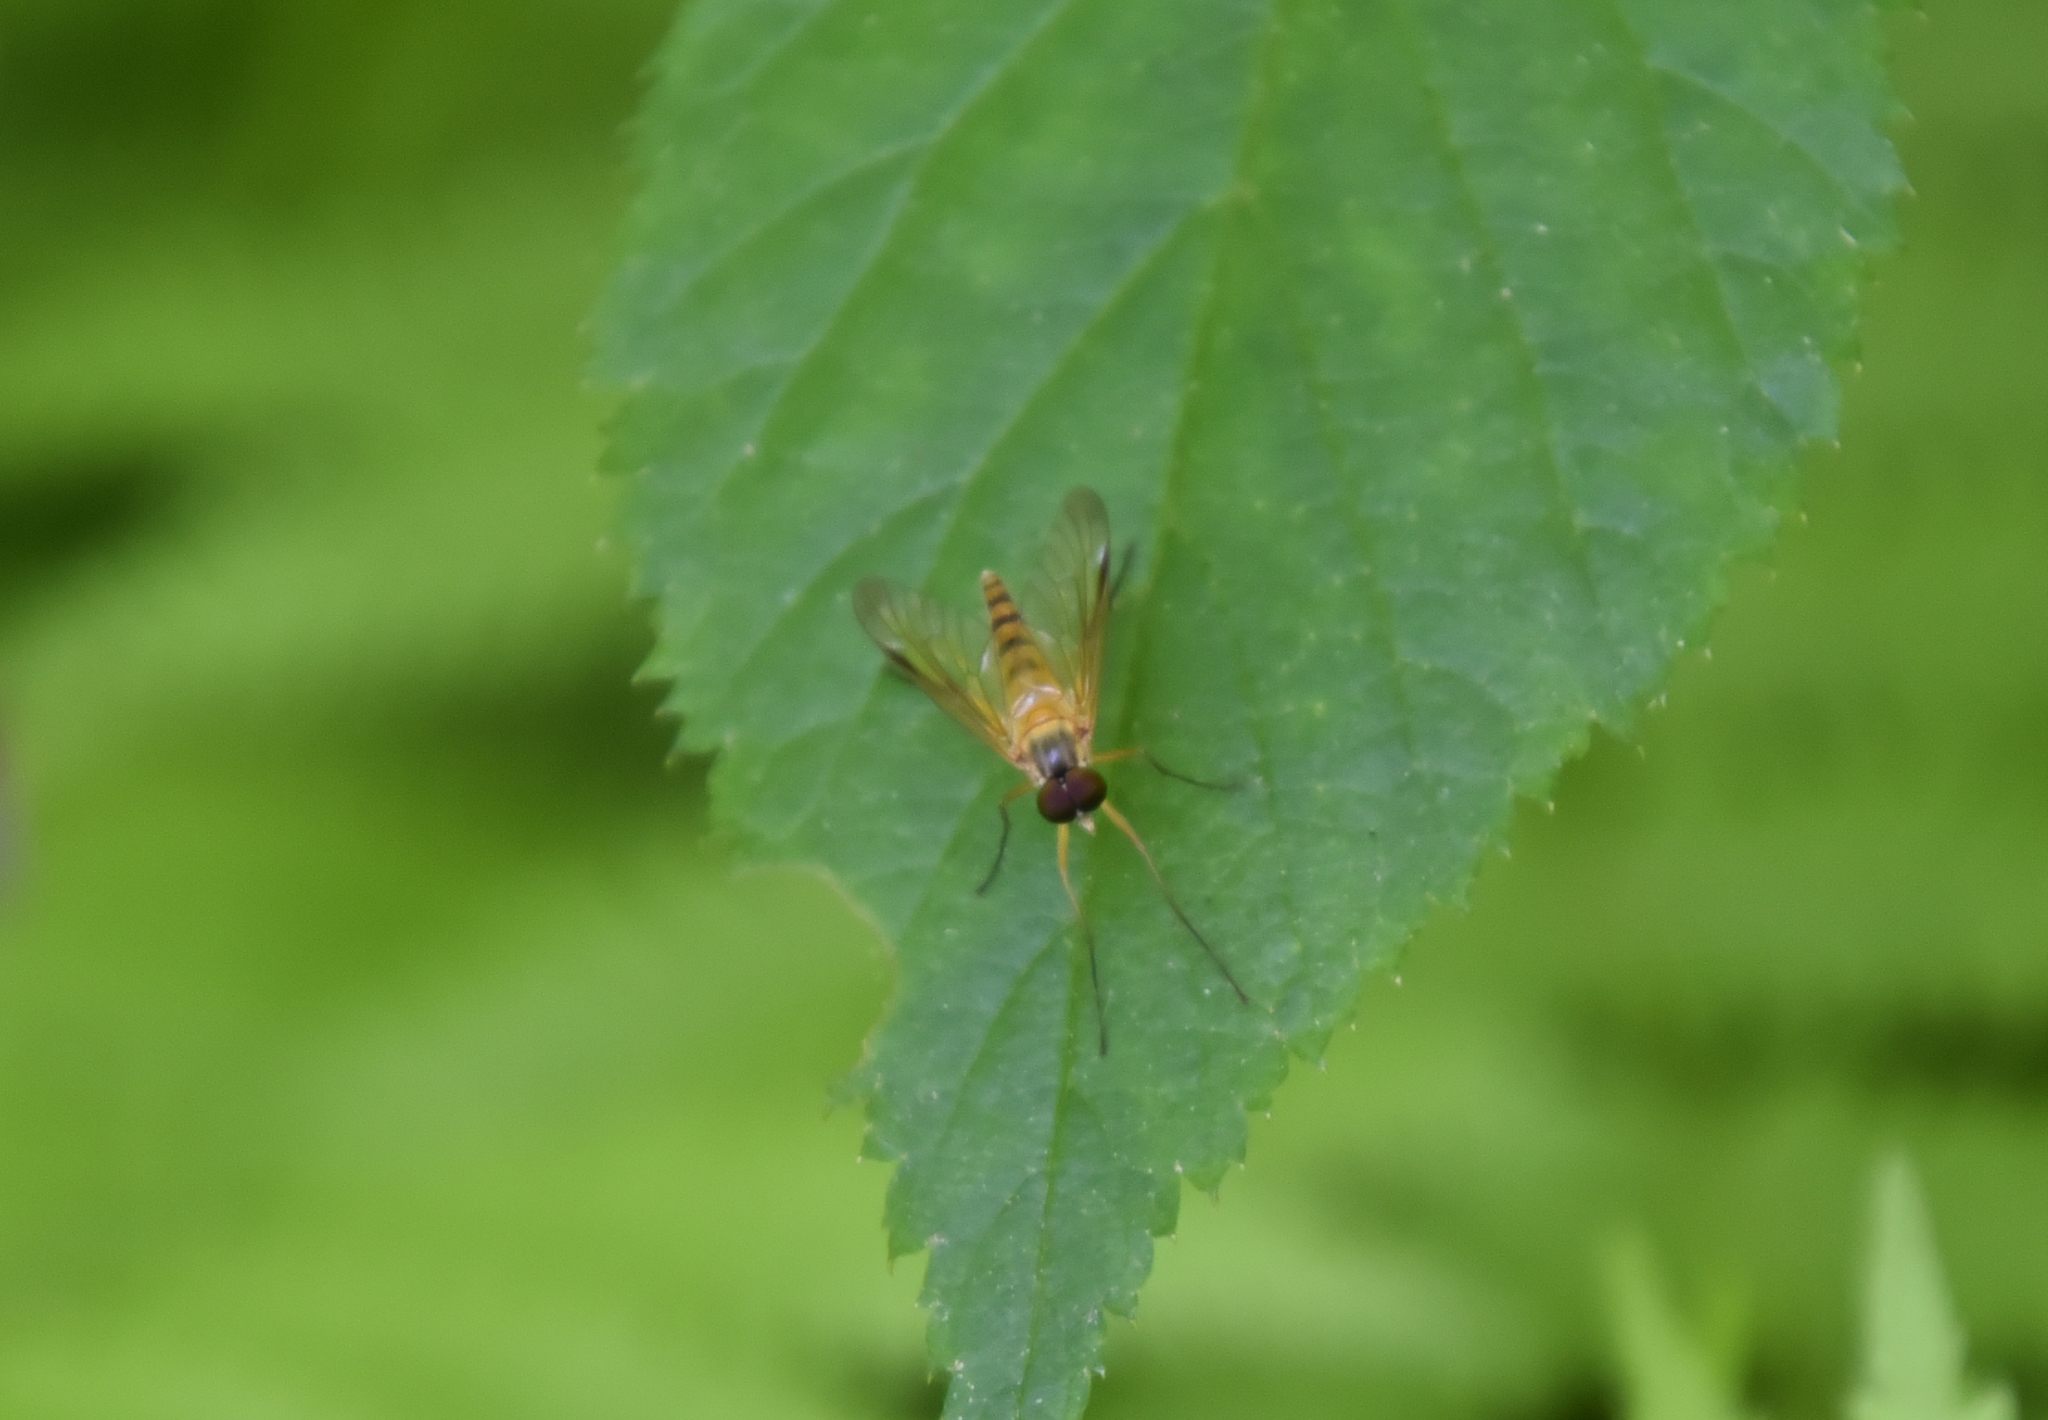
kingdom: Animalia
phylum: Arthropoda
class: Insecta
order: Diptera
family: Rhagionidae
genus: Rhagio
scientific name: Rhagio hirta
